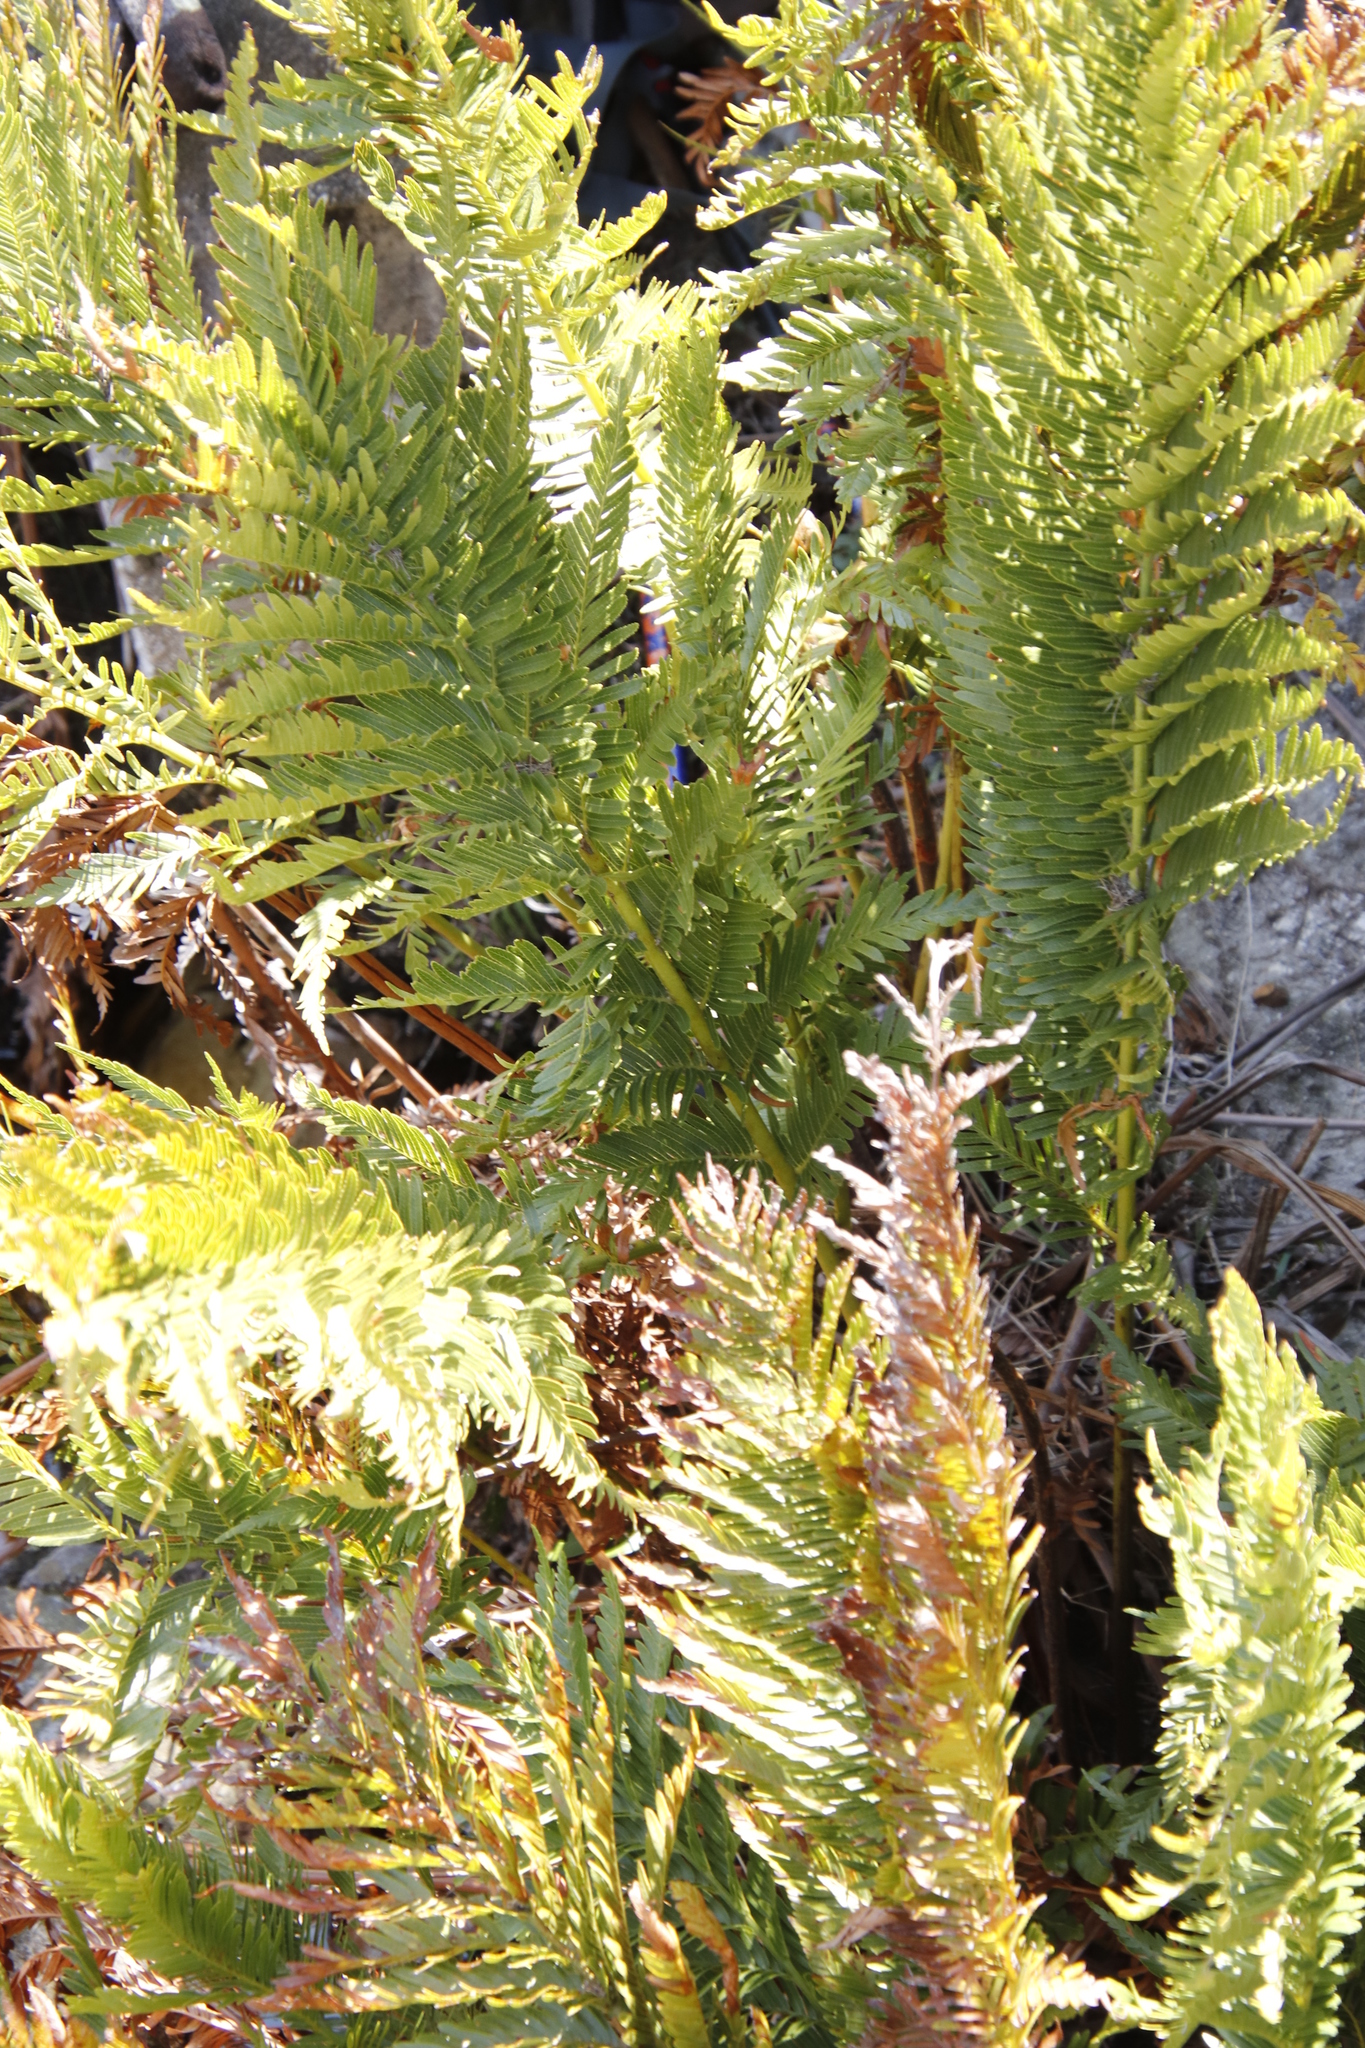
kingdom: Plantae
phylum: Tracheophyta
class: Polypodiopsida
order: Osmundales
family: Osmundaceae
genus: Todea
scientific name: Todea barbara
